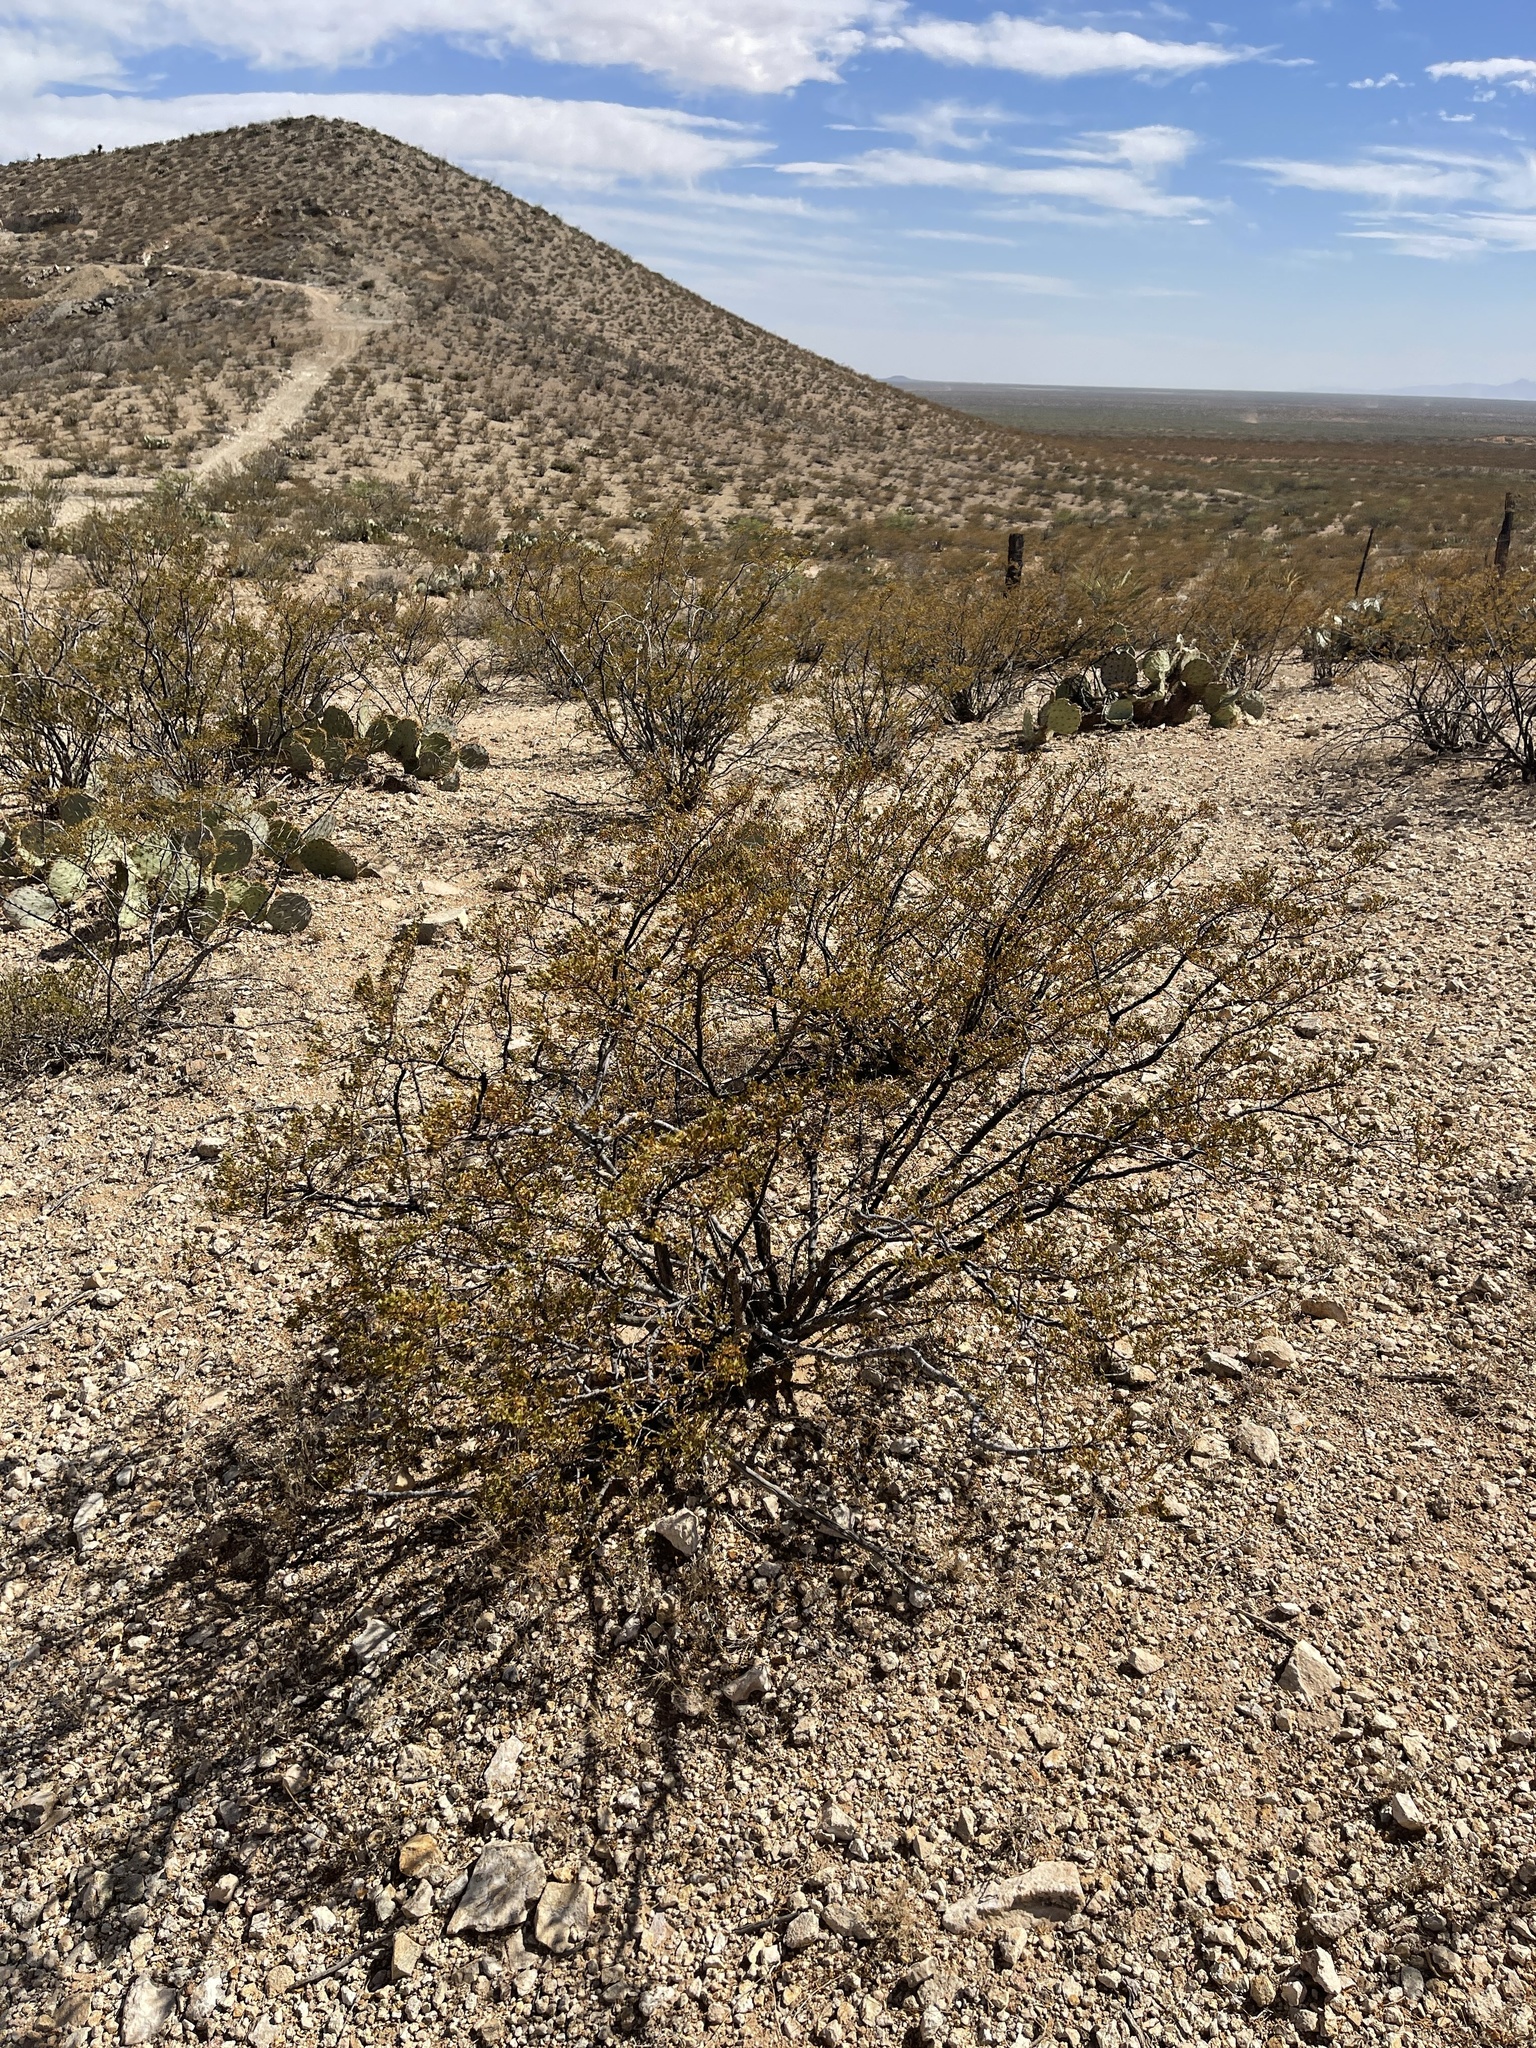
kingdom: Plantae
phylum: Tracheophyta
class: Magnoliopsida
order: Zygophyllales
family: Zygophyllaceae
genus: Larrea
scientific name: Larrea tridentata
